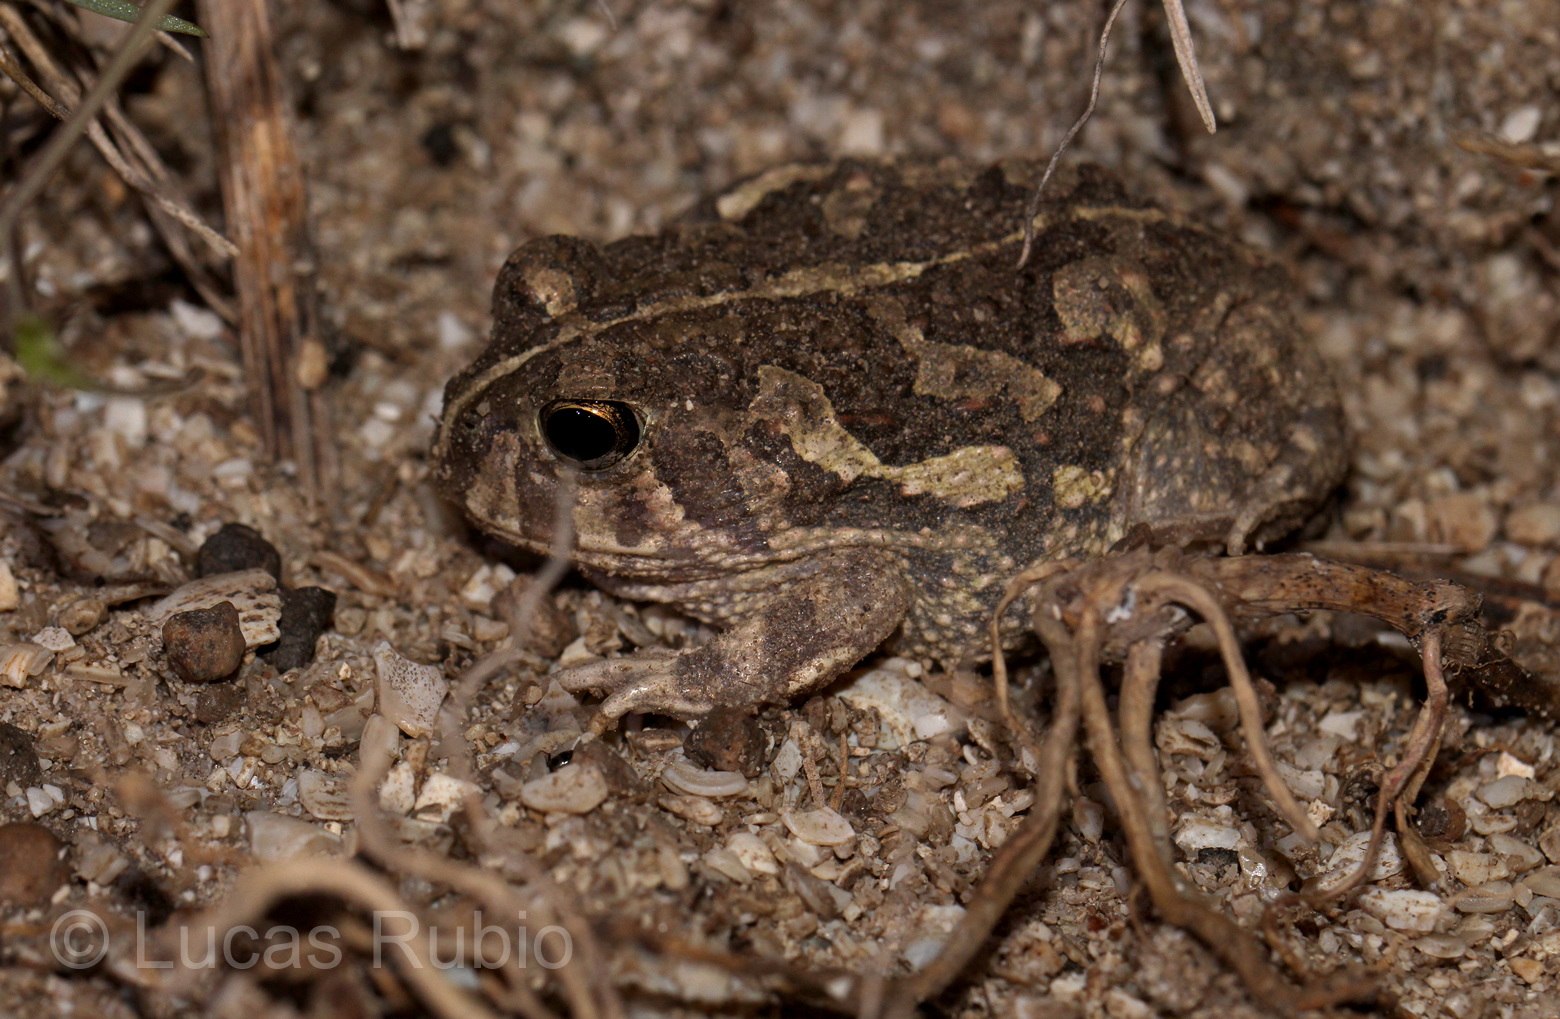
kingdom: Animalia
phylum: Chordata
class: Amphibia
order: Anura
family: Odontophrynidae
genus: Odontophrynus
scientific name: Odontophrynus
